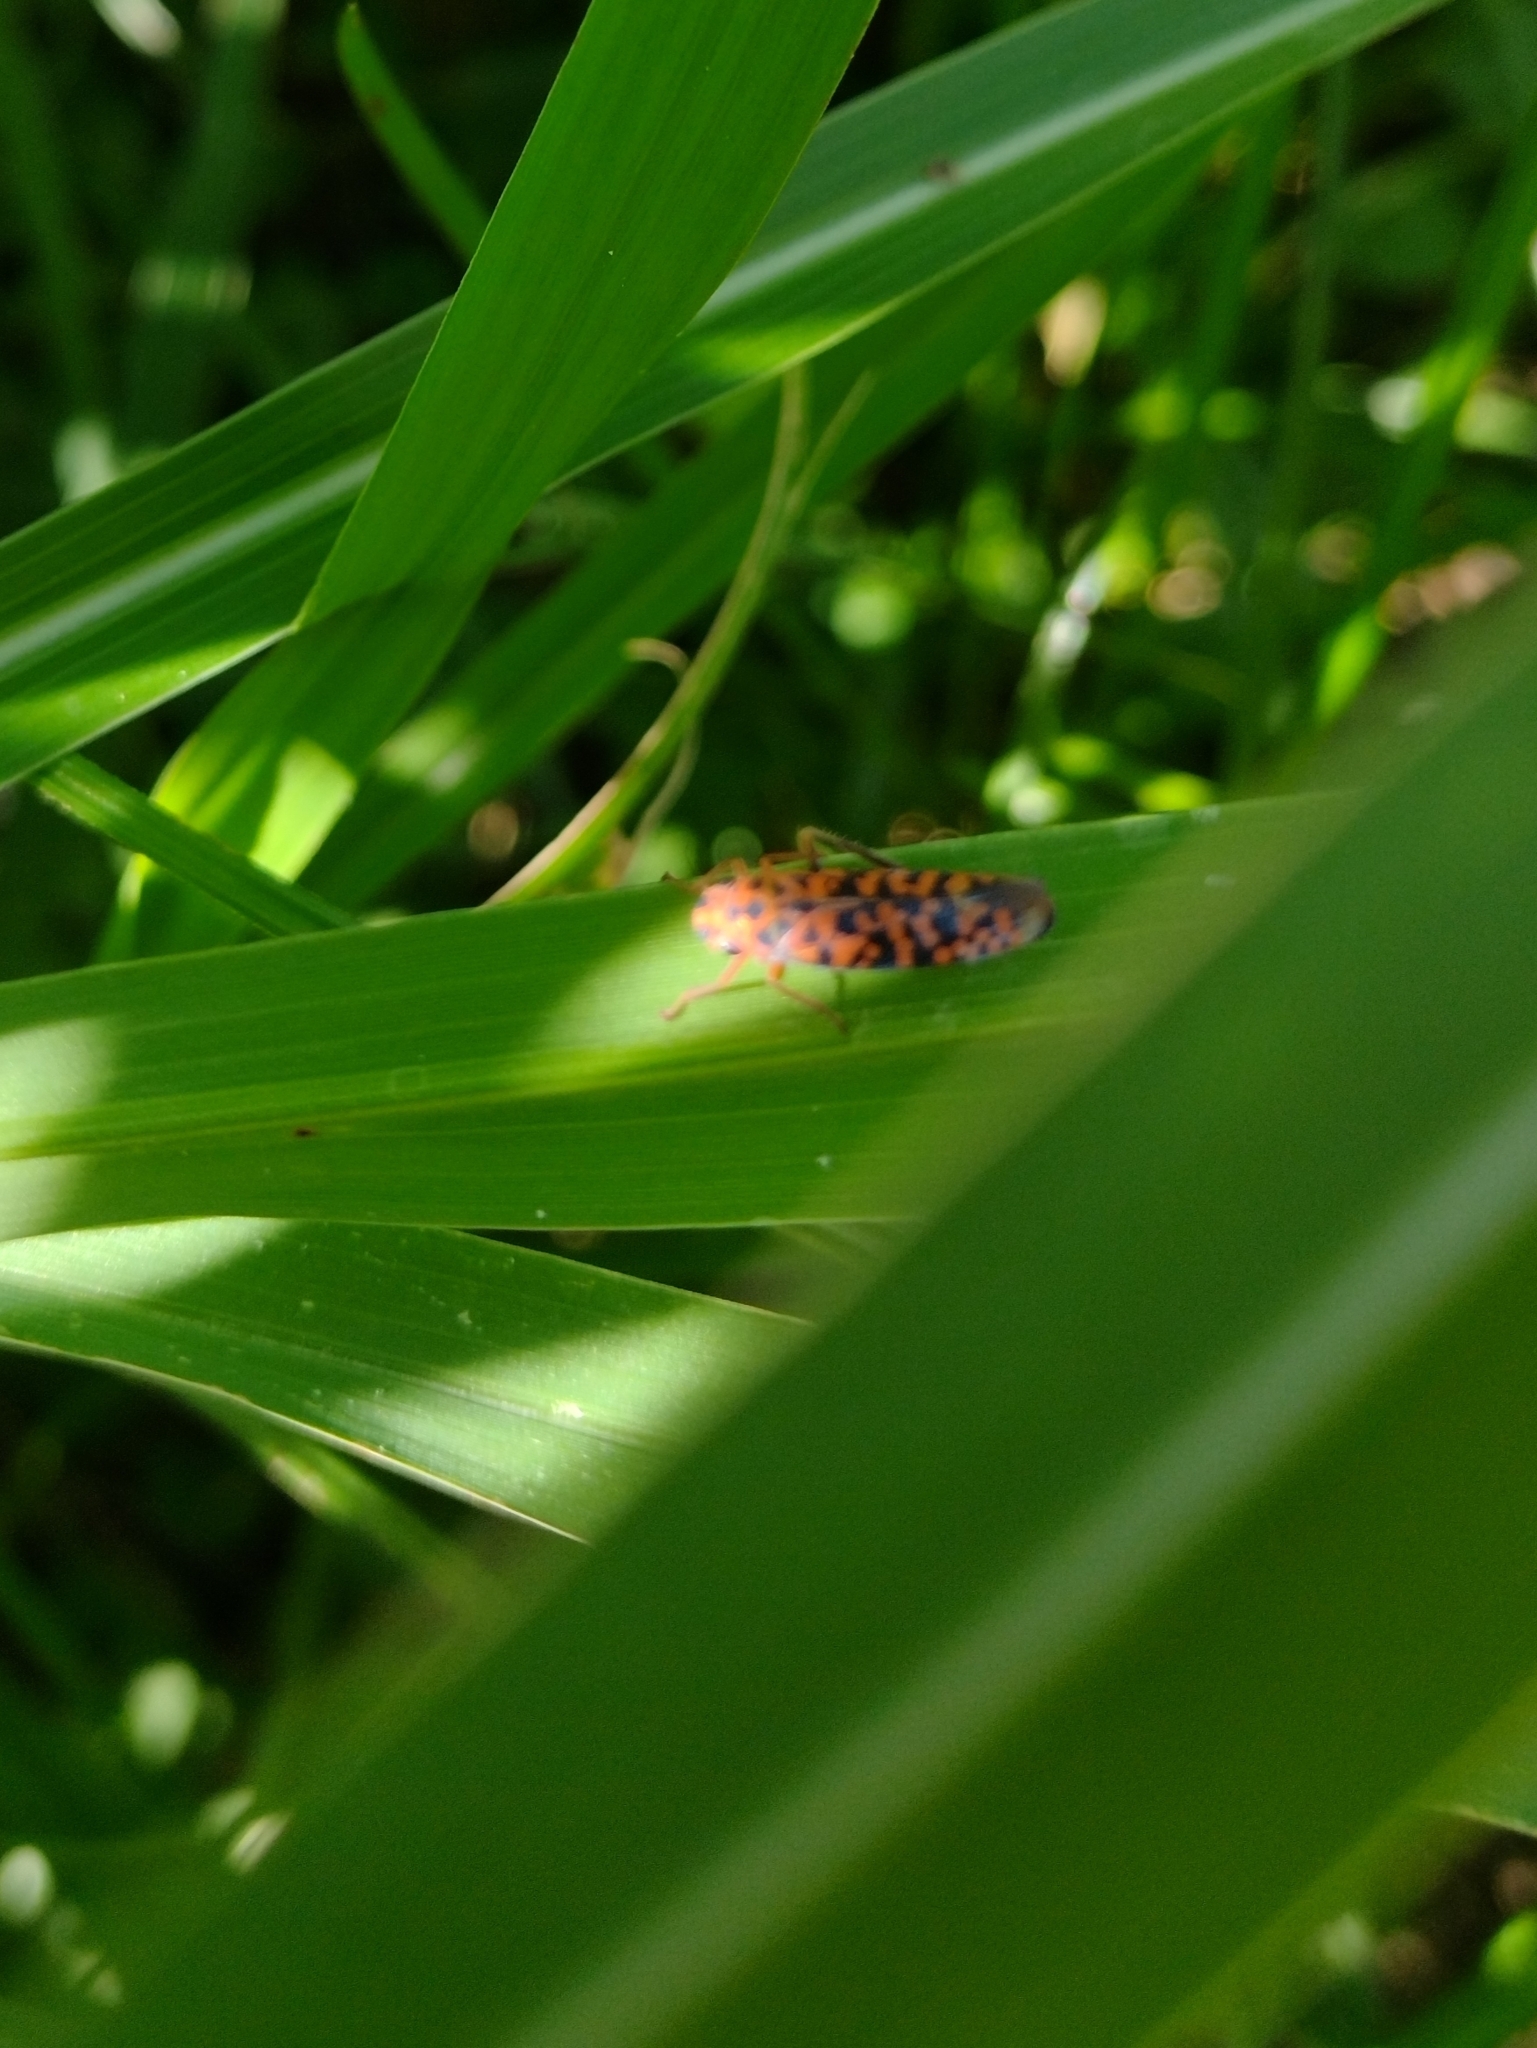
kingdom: Animalia
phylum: Arthropoda
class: Insecta
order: Hemiptera
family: Cicadellidae
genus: Pawiloma
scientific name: Pawiloma victima
